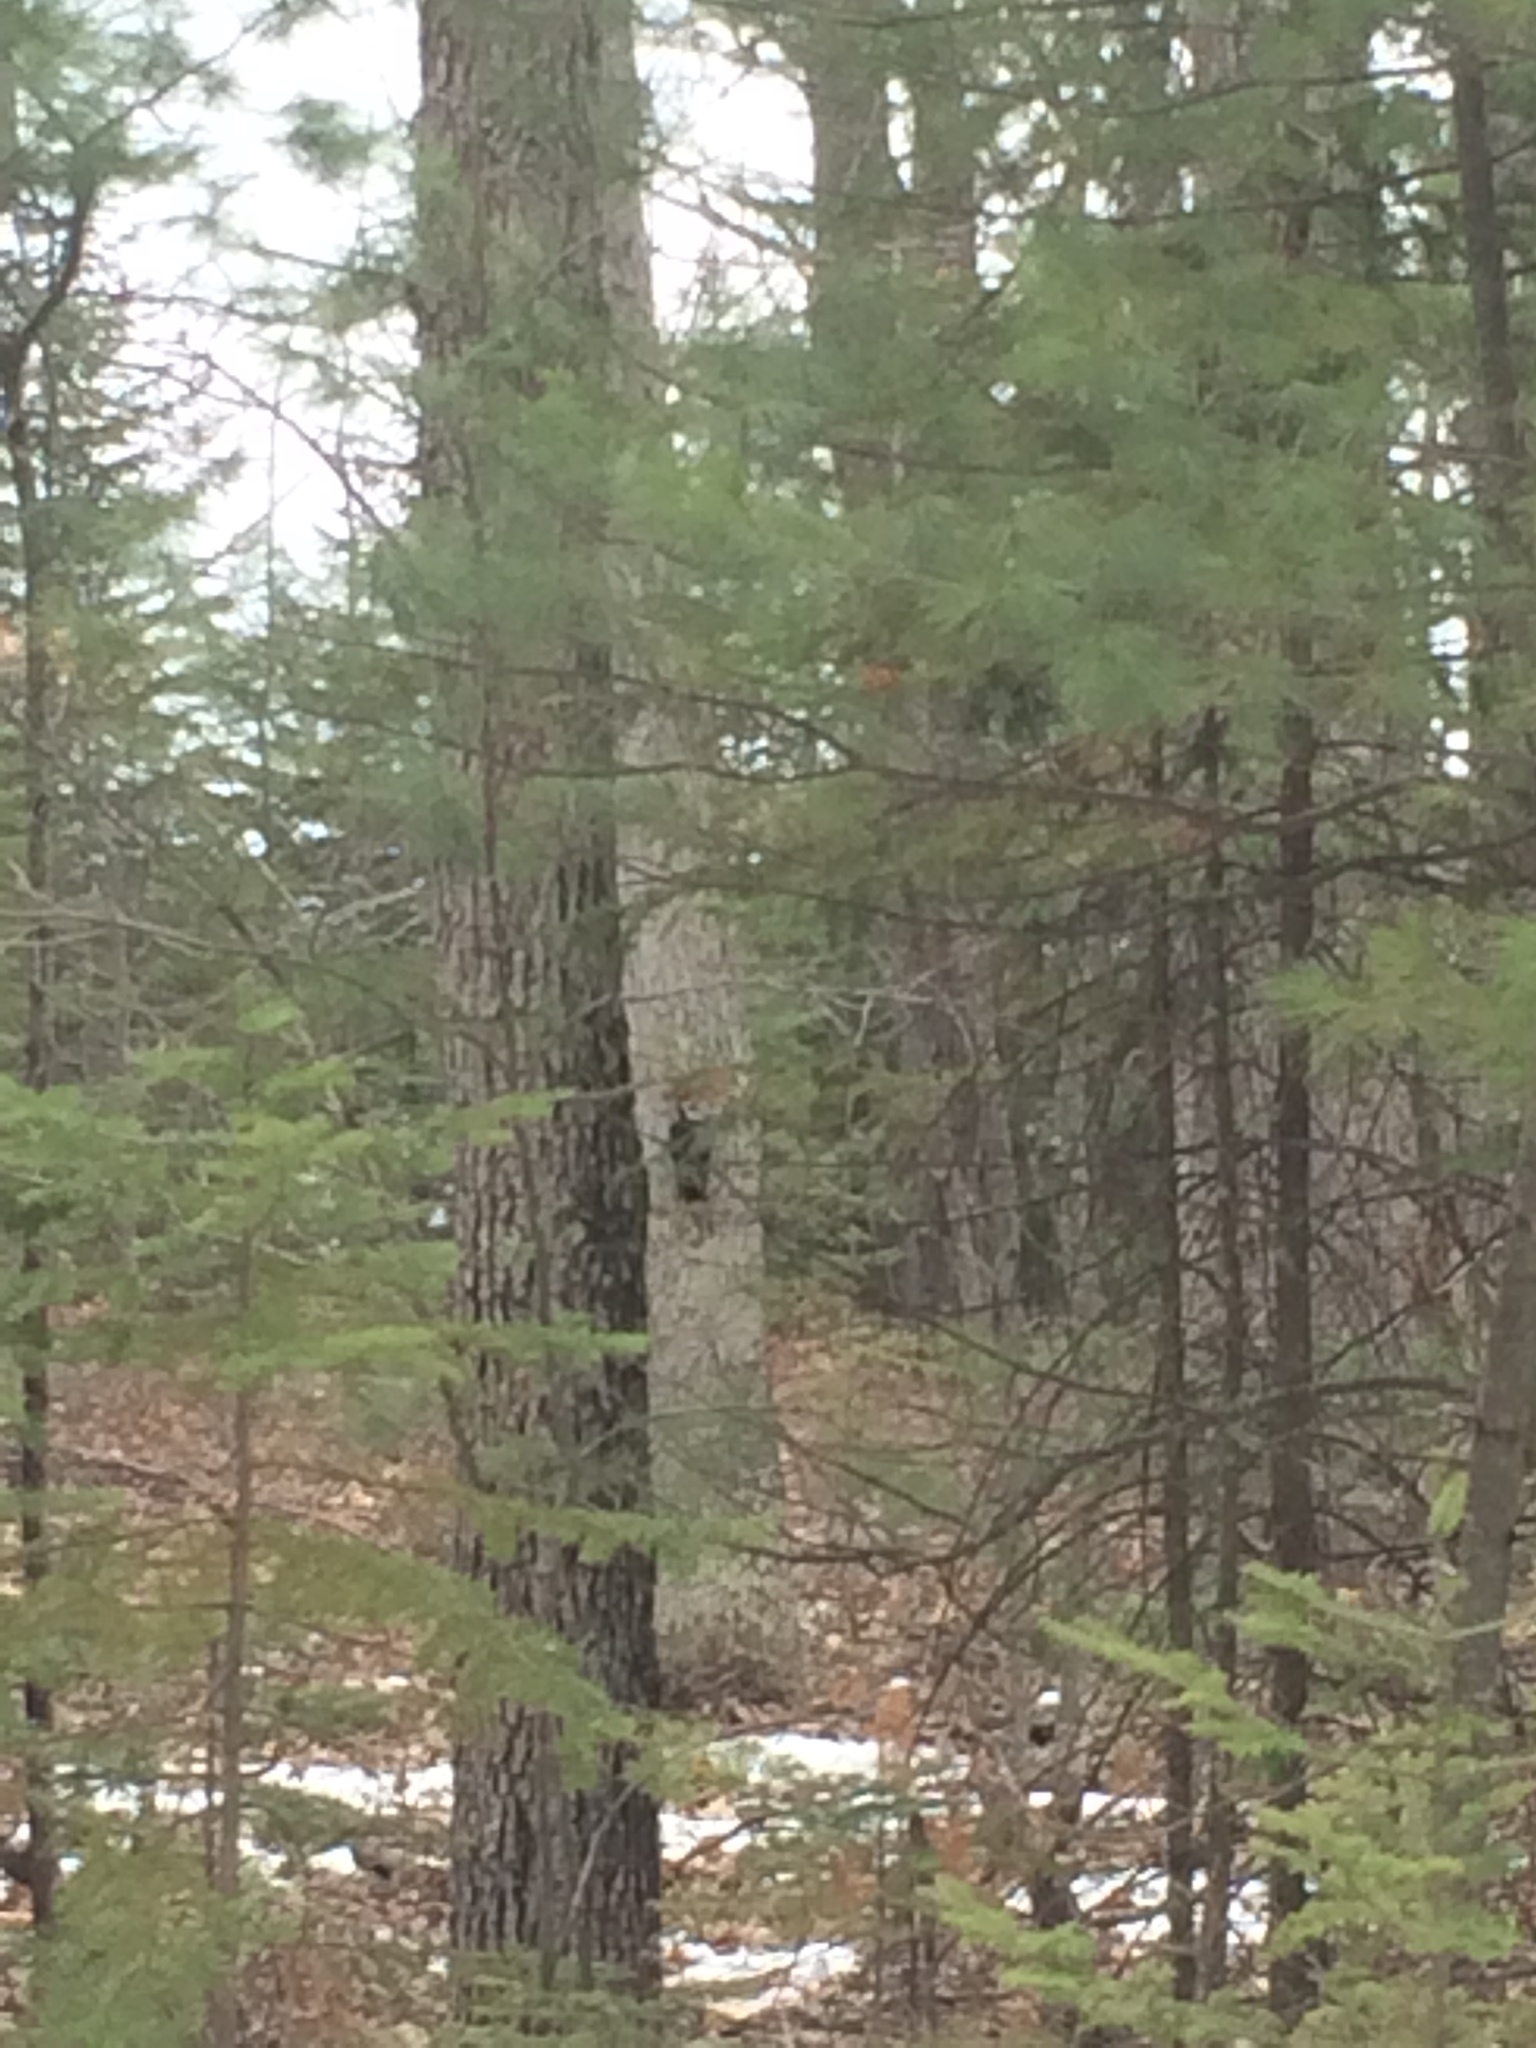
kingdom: Animalia
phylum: Chordata
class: Aves
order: Piciformes
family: Picidae
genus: Dryocopus
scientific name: Dryocopus pileatus
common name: Pileated woodpecker
